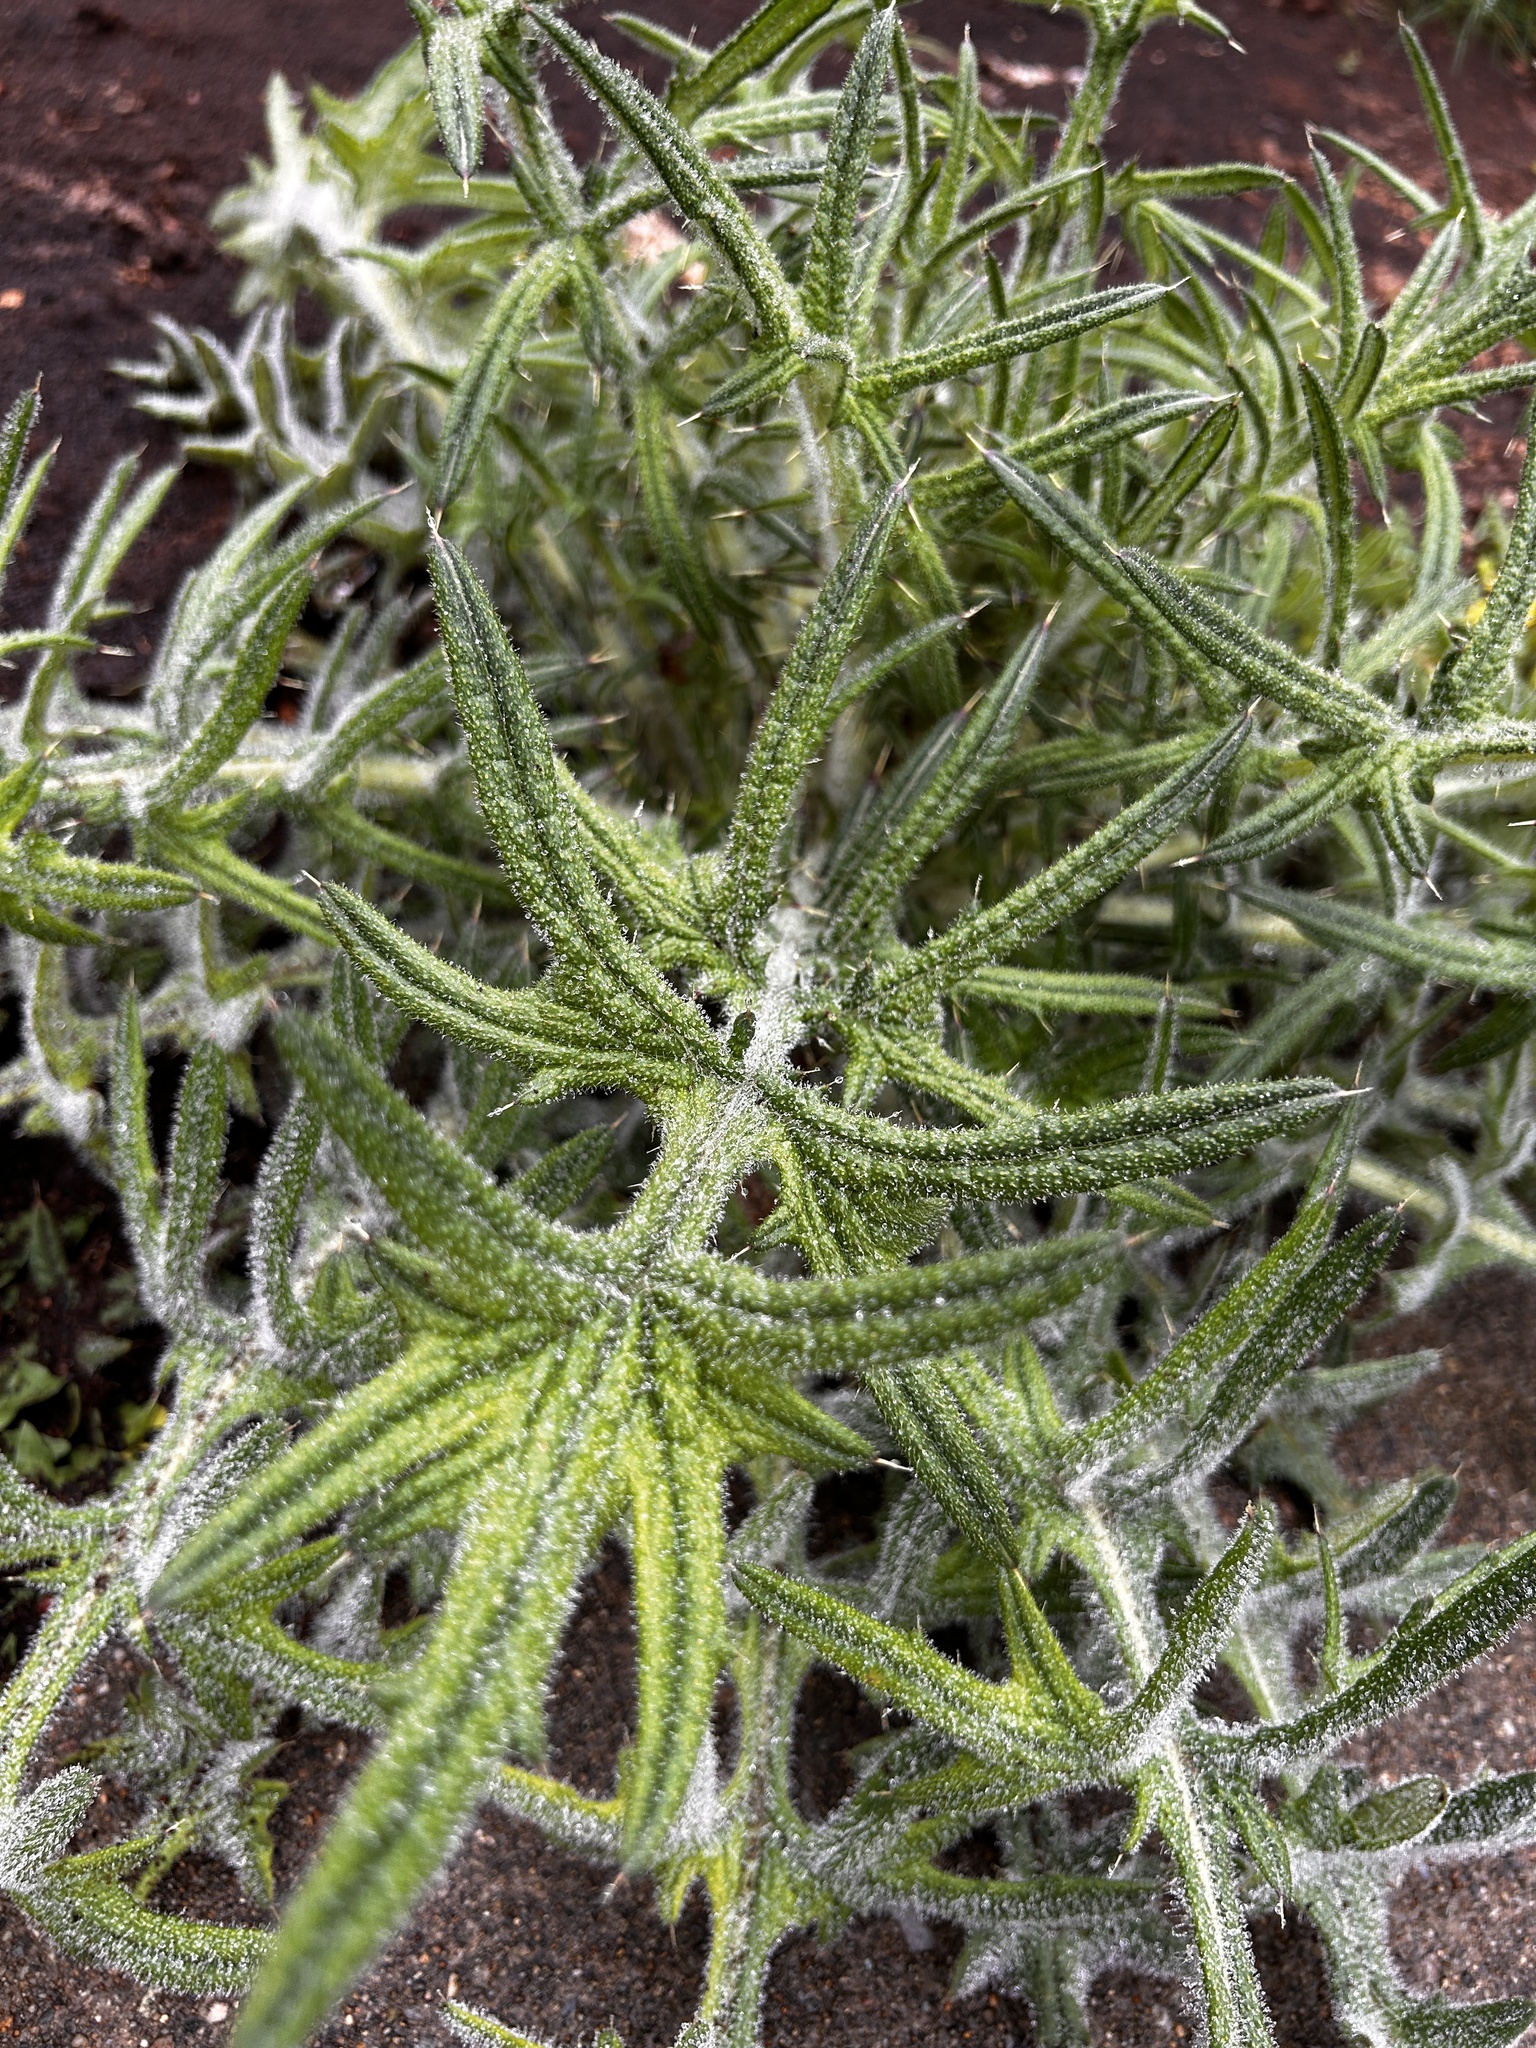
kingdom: Plantae
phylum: Tracheophyta
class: Magnoliopsida
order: Asterales
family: Asteraceae
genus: Cirsium
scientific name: Cirsium vulgare
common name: Bull thistle
